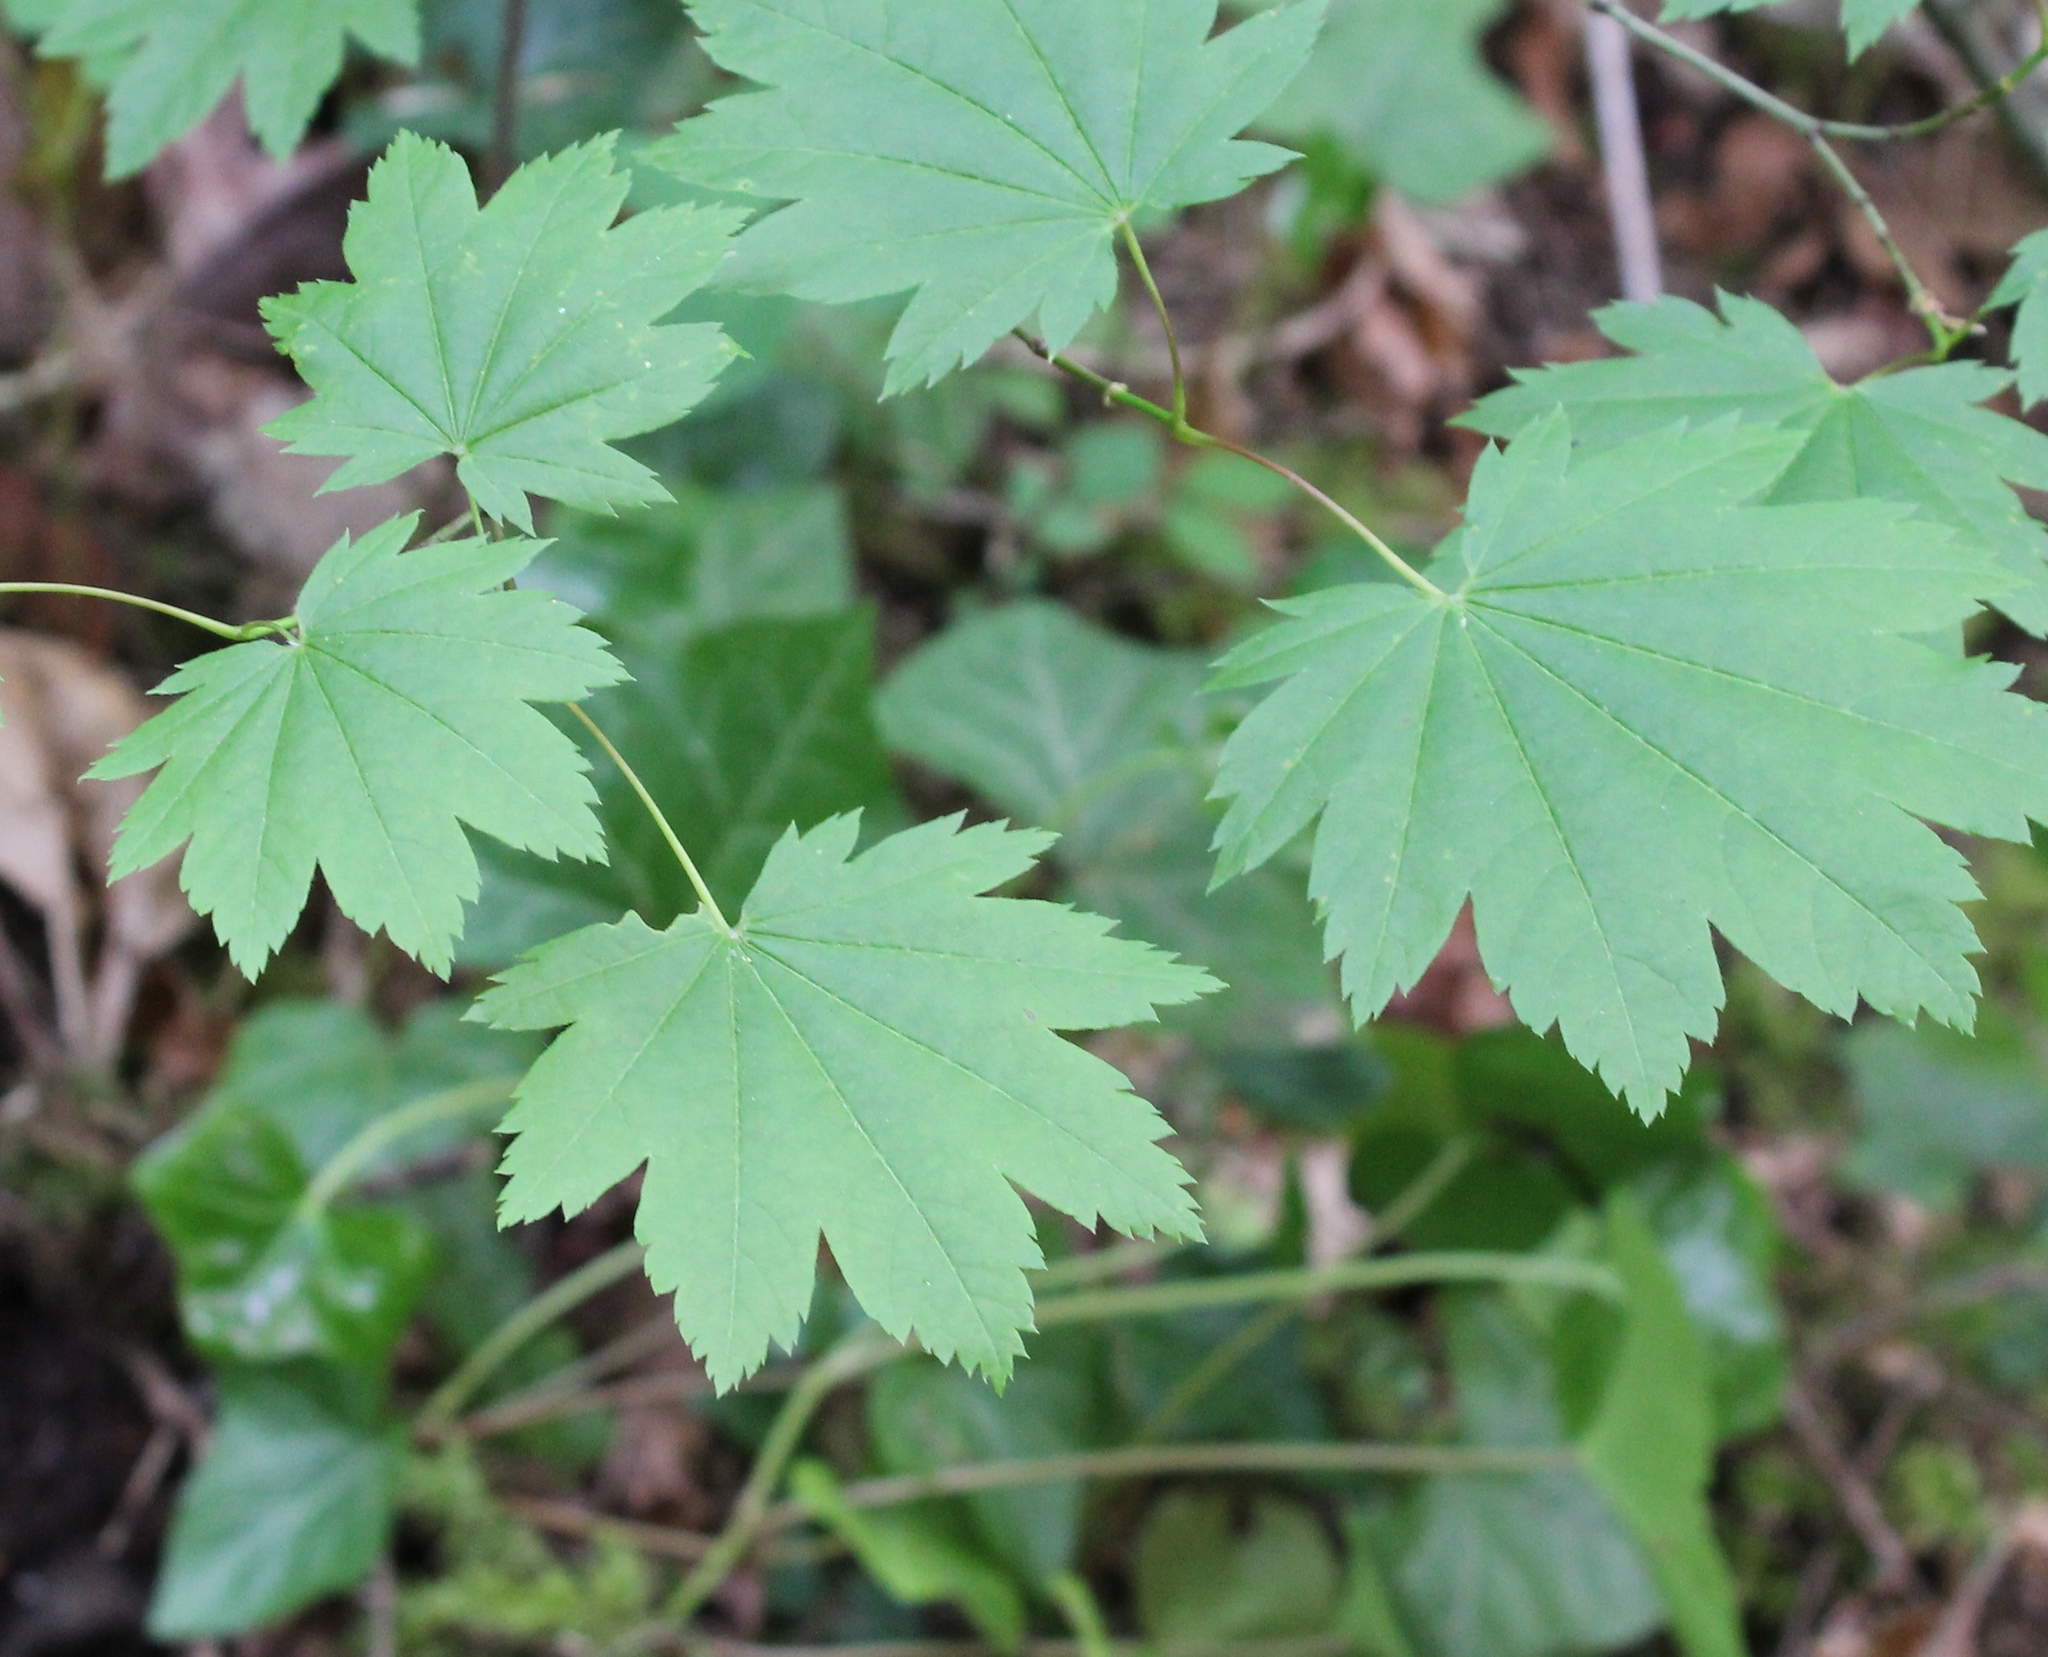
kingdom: Plantae
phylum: Tracheophyta
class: Magnoliopsida
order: Sapindales
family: Sapindaceae
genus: Acer
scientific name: Acer circinatum
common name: Vine maple
